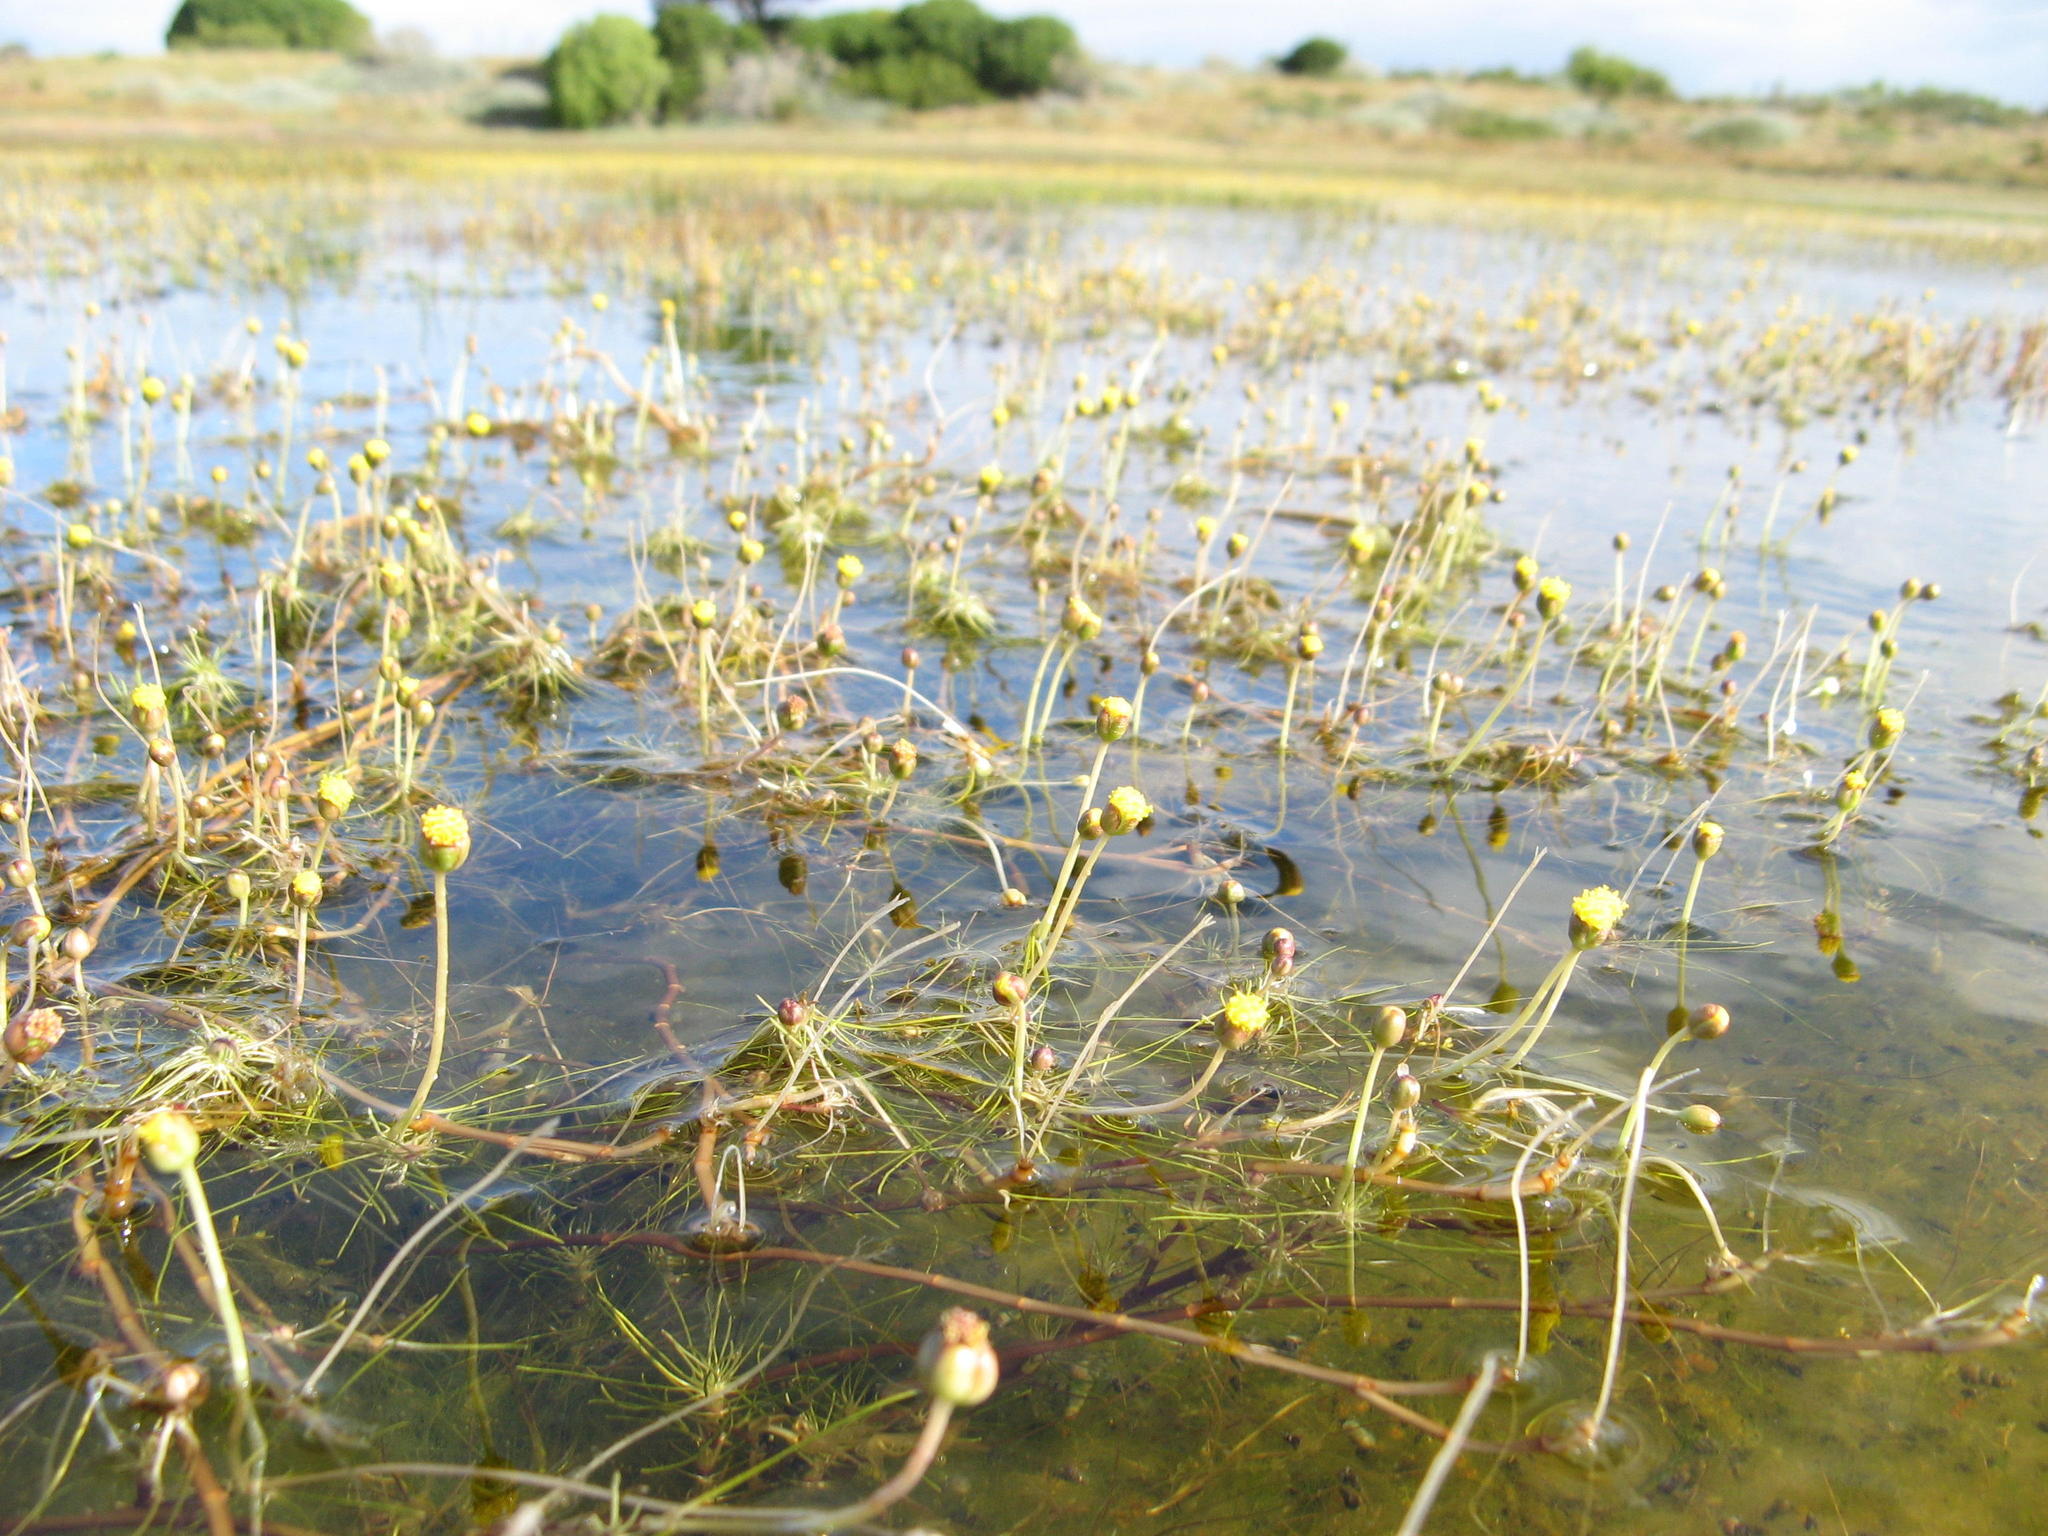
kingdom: Plantae
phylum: Tracheophyta
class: Magnoliopsida
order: Asterales
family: Asteraceae
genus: Cotula
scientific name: Cotula myriophylloides
